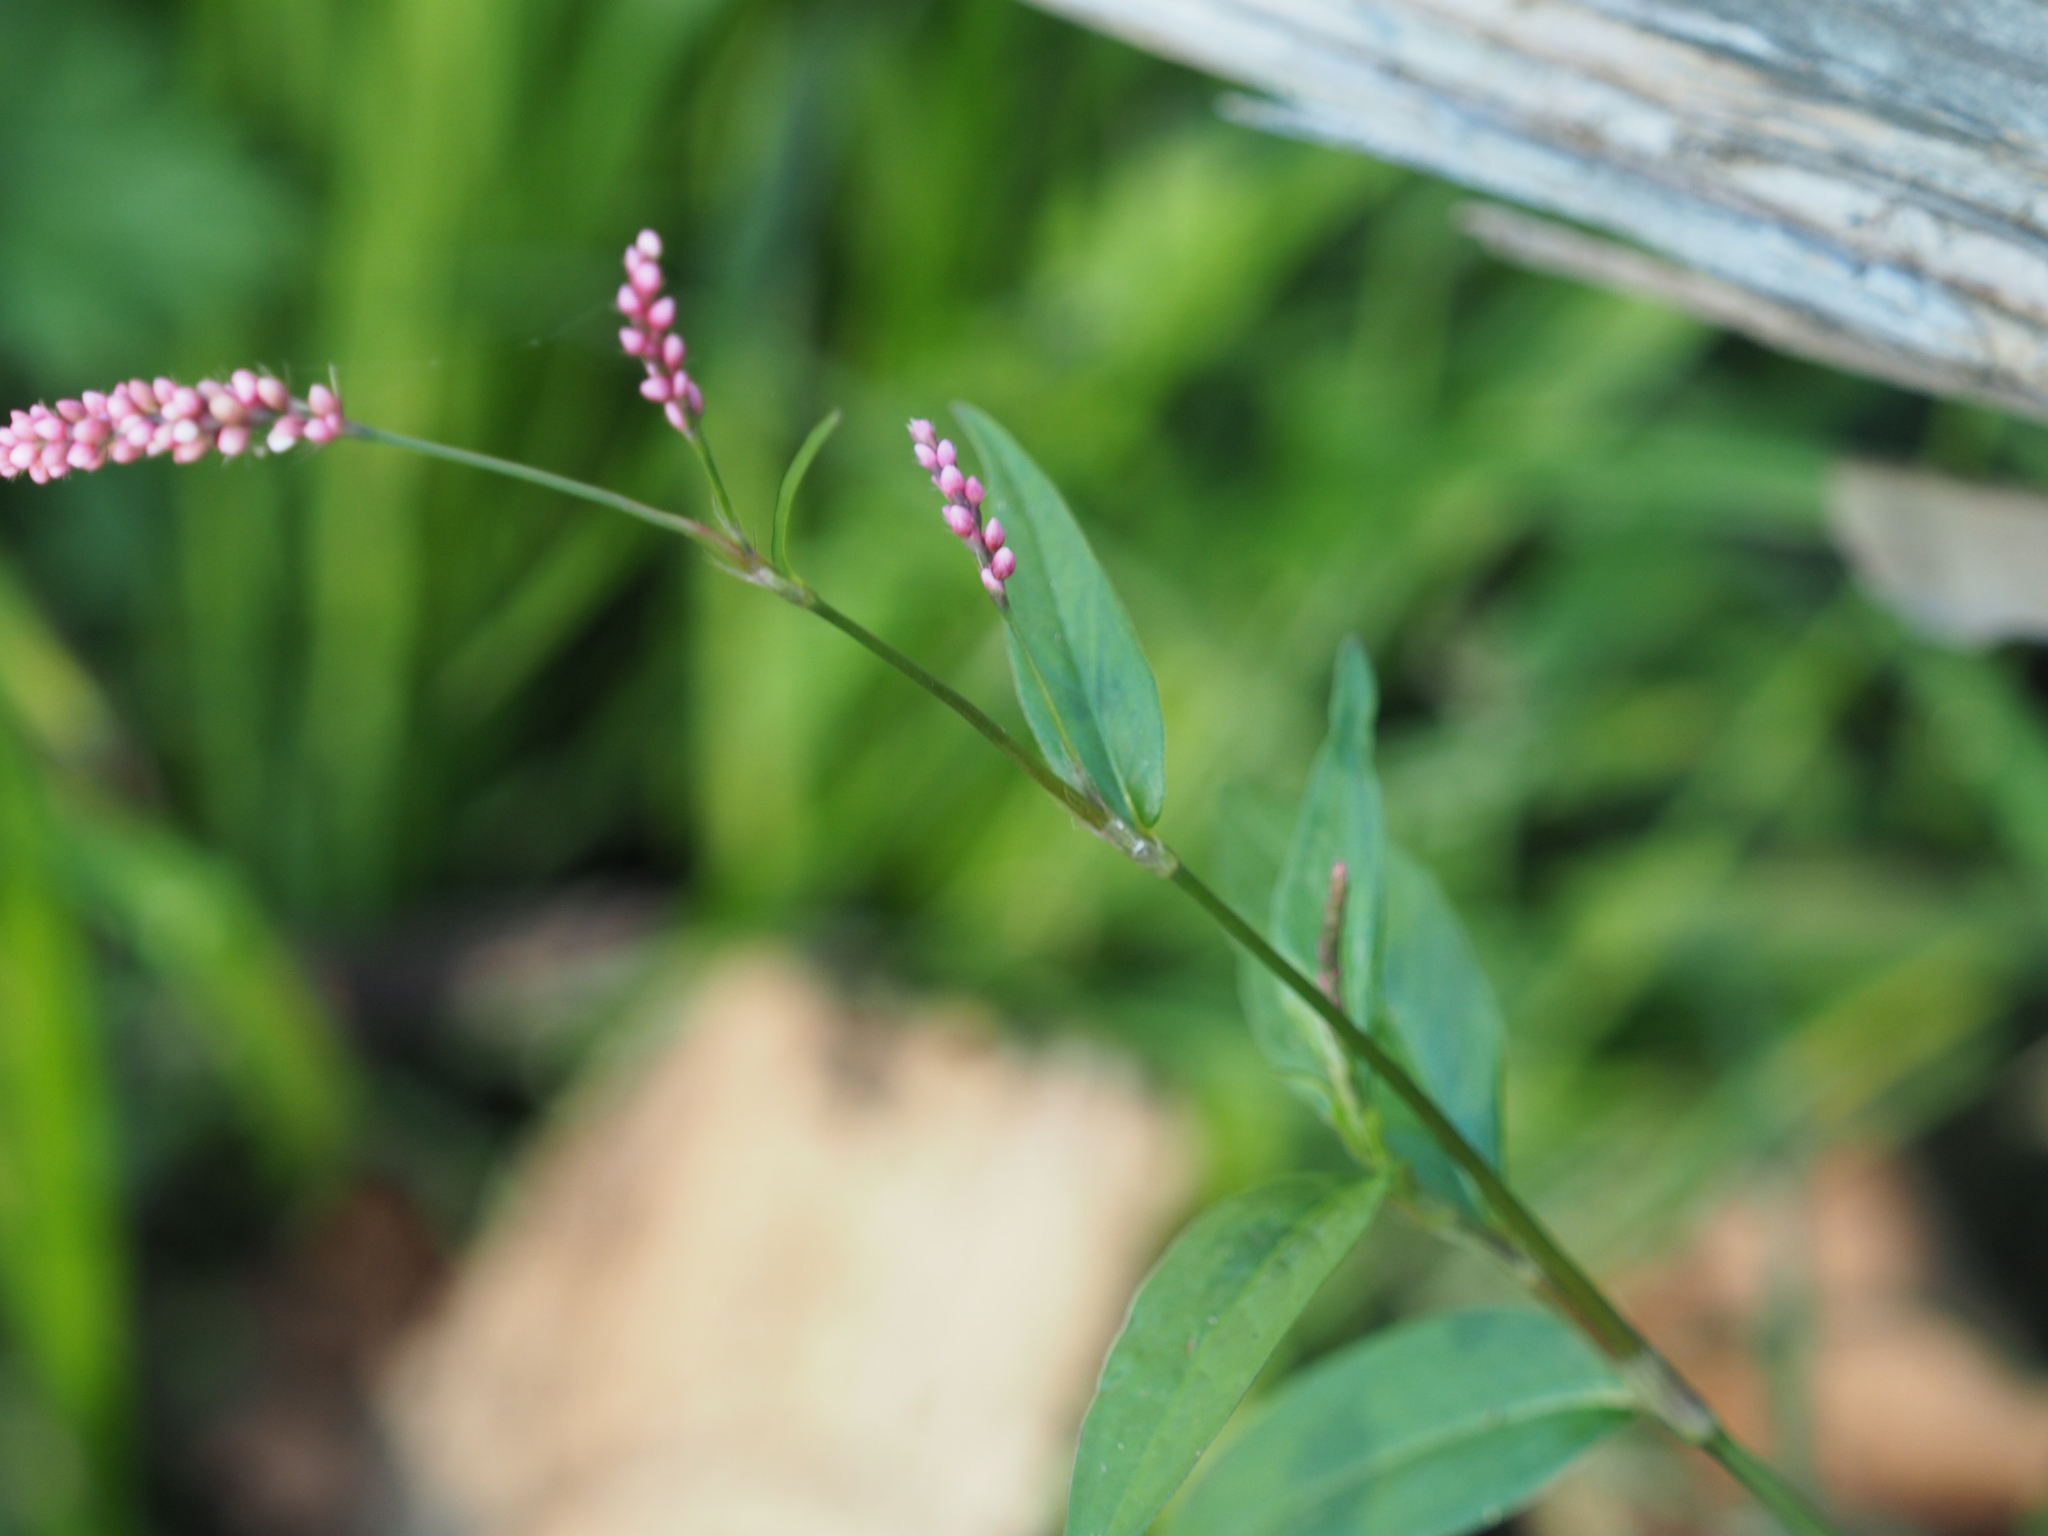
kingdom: Plantae
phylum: Tracheophyta
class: Magnoliopsida
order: Caryophyllales
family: Polygonaceae
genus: Persicaria
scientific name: Persicaria maculosa
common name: Redshank
